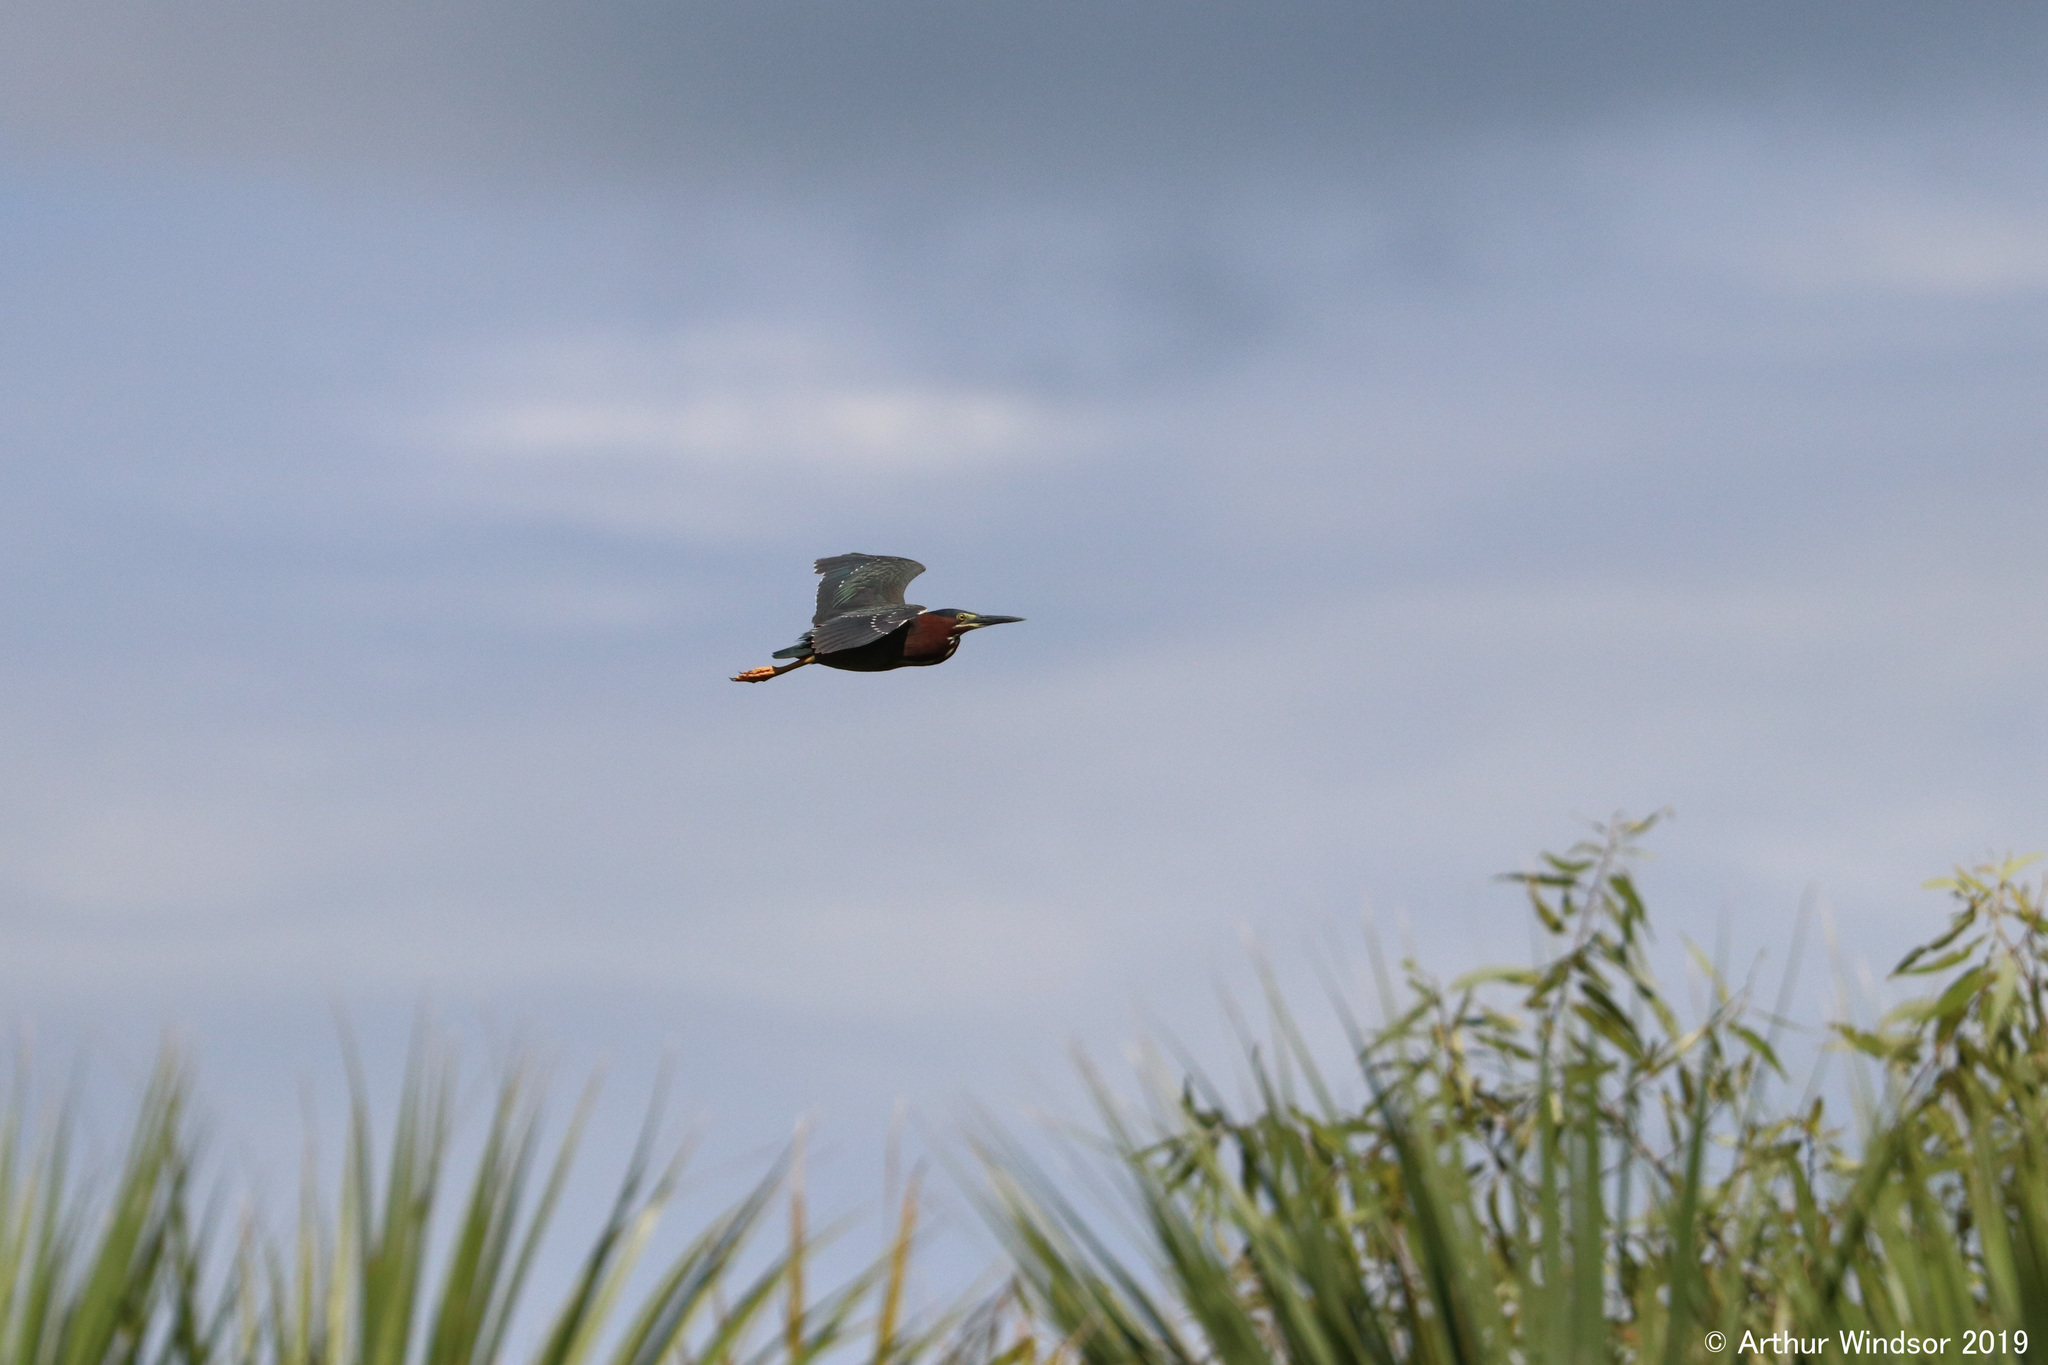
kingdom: Animalia
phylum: Chordata
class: Aves
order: Pelecaniformes
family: Ardeidae
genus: Butorides
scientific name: Butorides virescens
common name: Green heron
